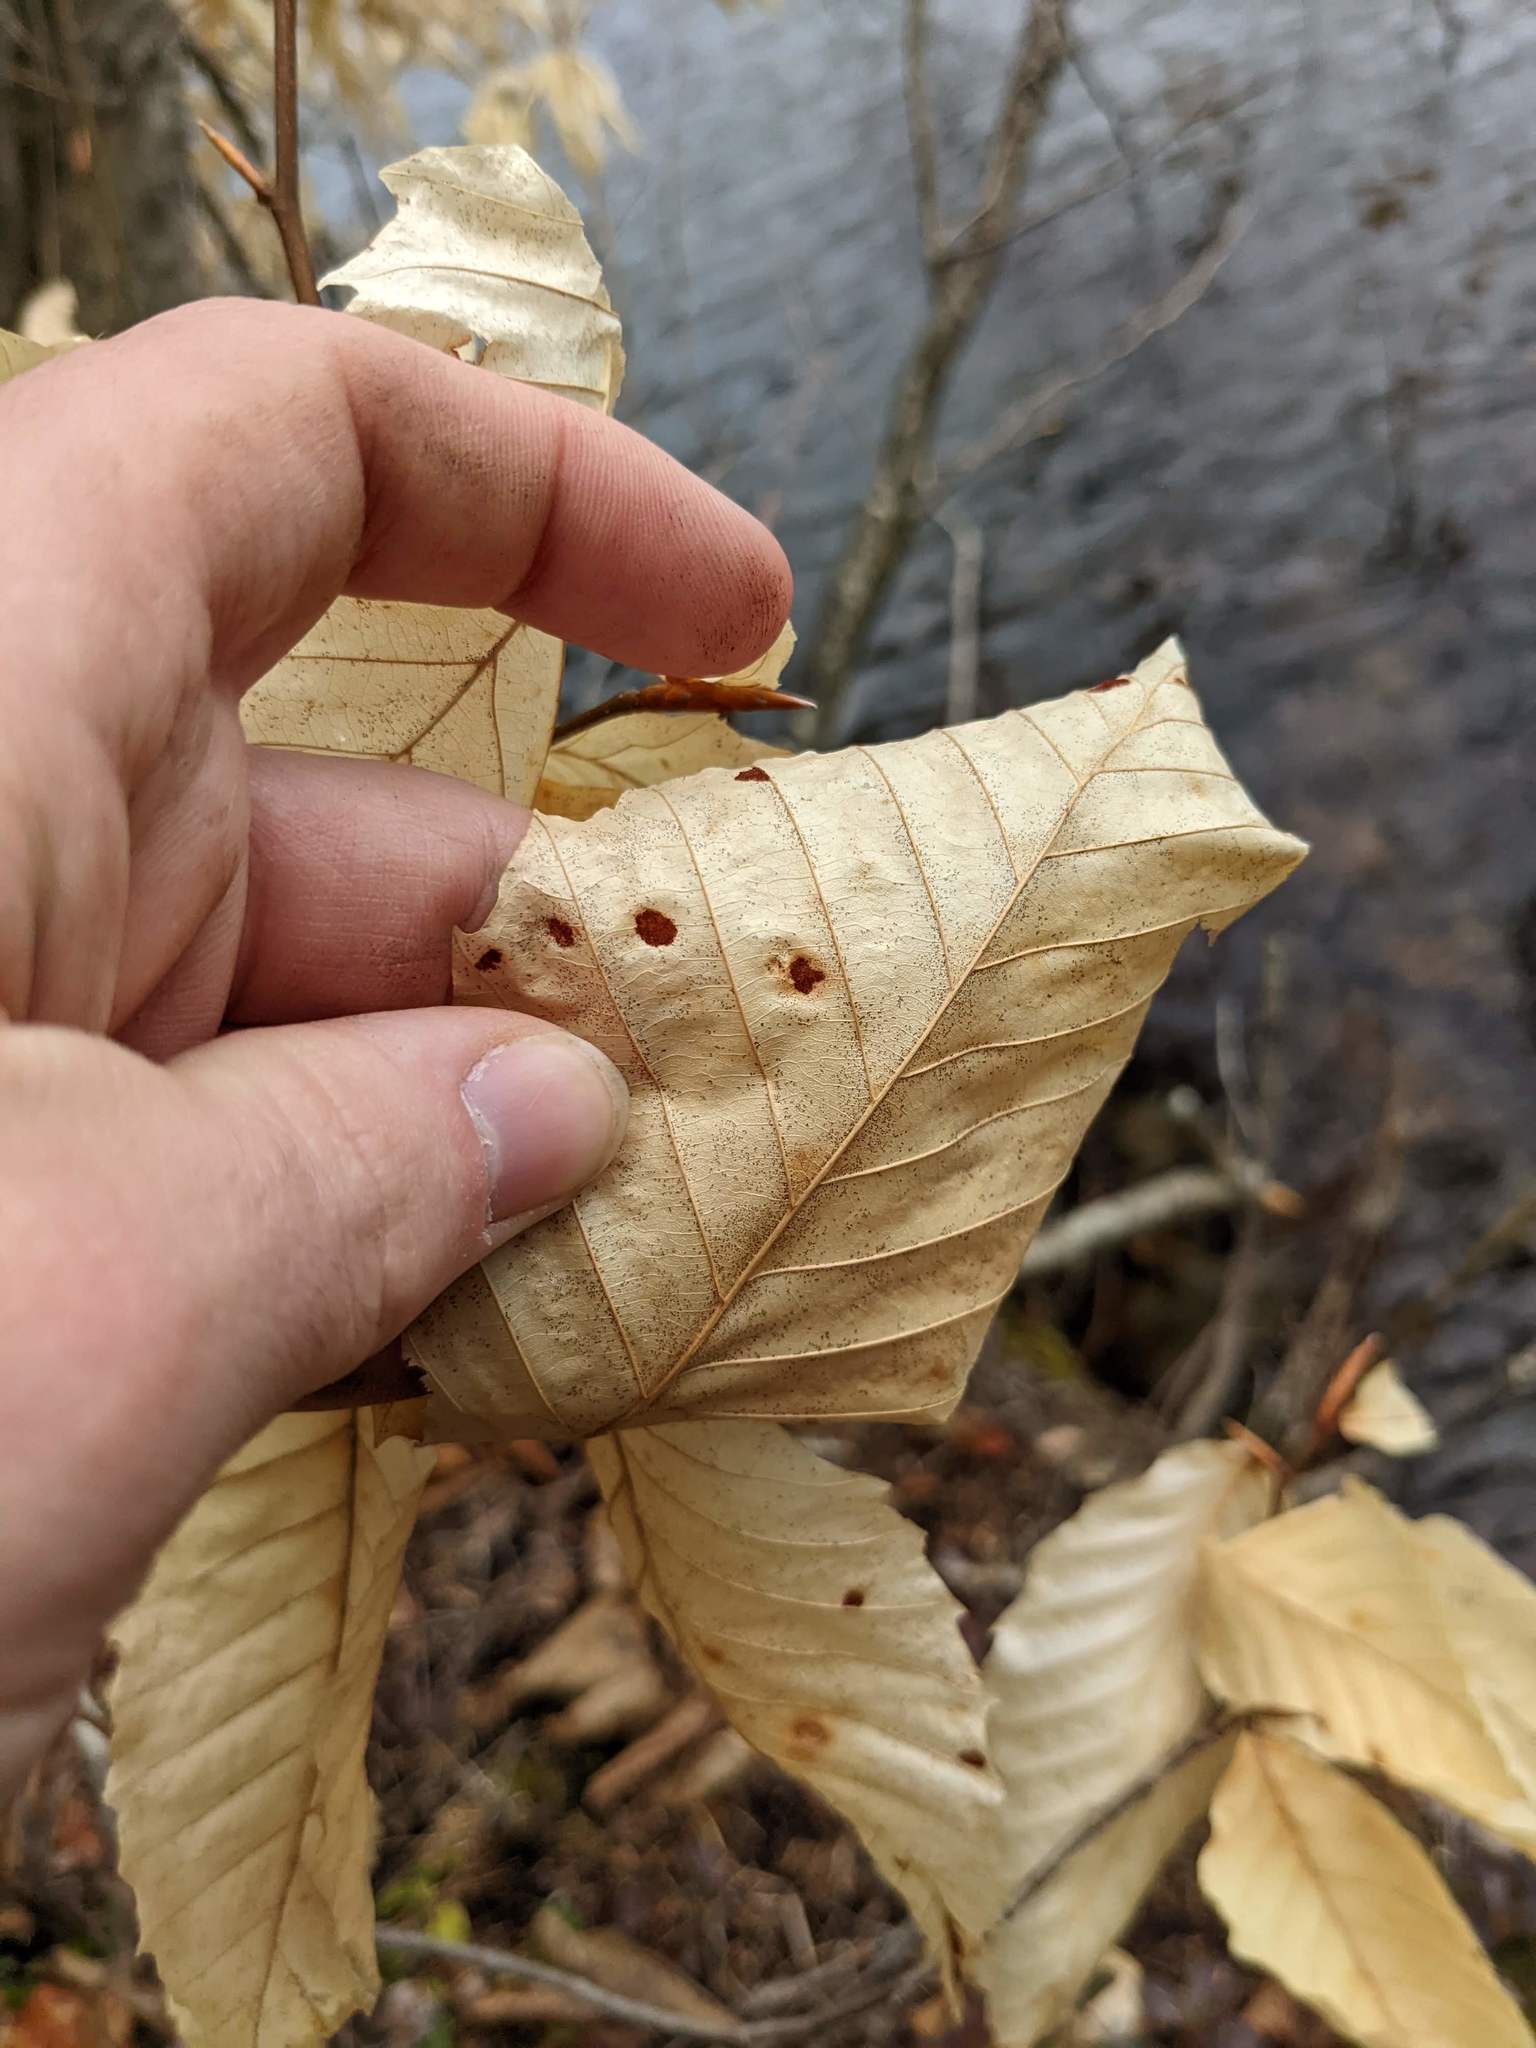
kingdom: Plantae
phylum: Tracheophyta
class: Magnoliopsida
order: Fagales
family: Fagaceae
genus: Fagus
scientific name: Fagus grandifolia
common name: American beech
